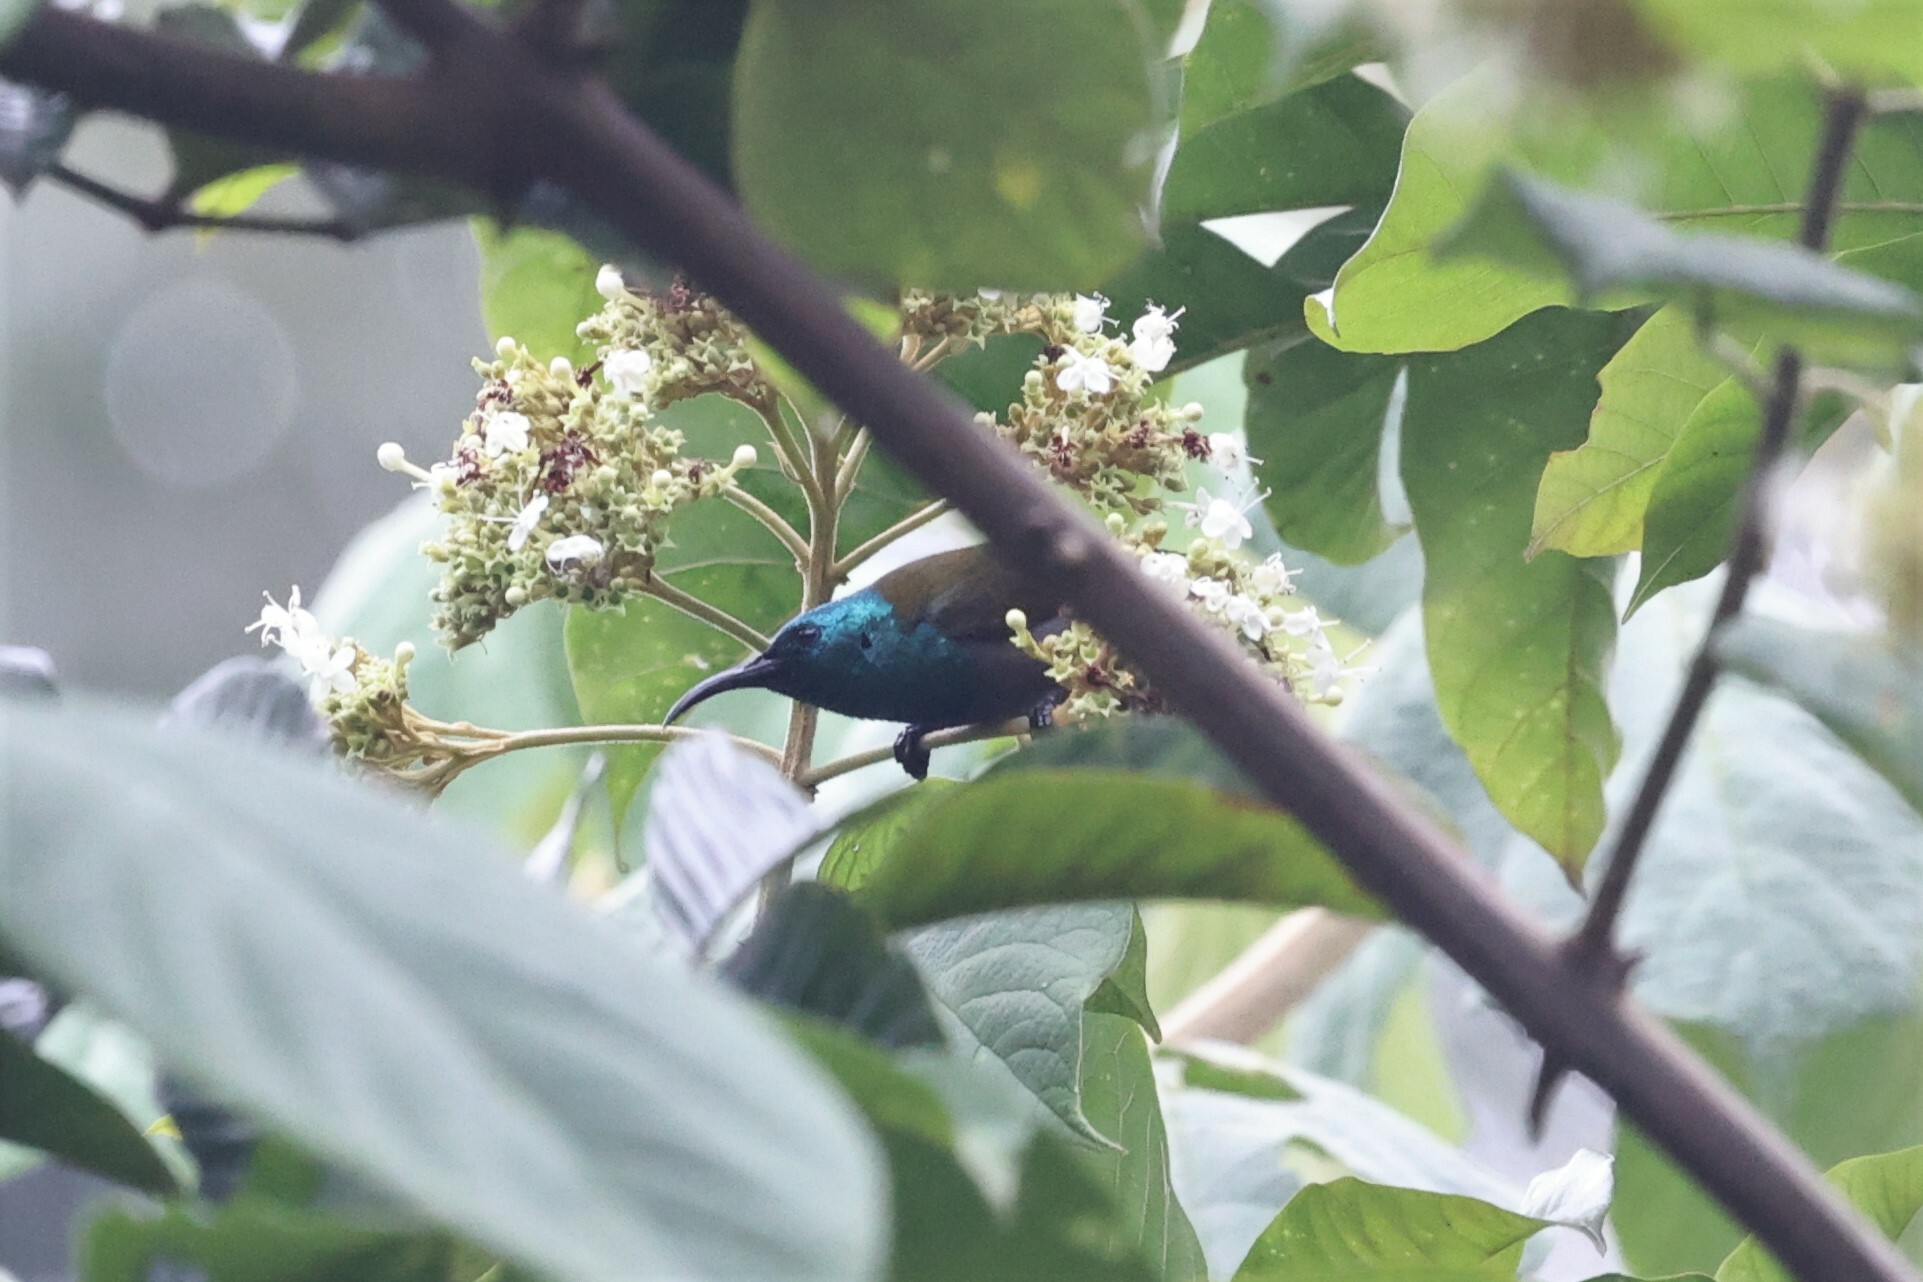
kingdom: Animalia
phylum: Chordata
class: Aves
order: Passeriformes
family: Nectariniidae
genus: Cyanomitra
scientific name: Cyanomitra verticalis
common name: Green-headed sunbird
